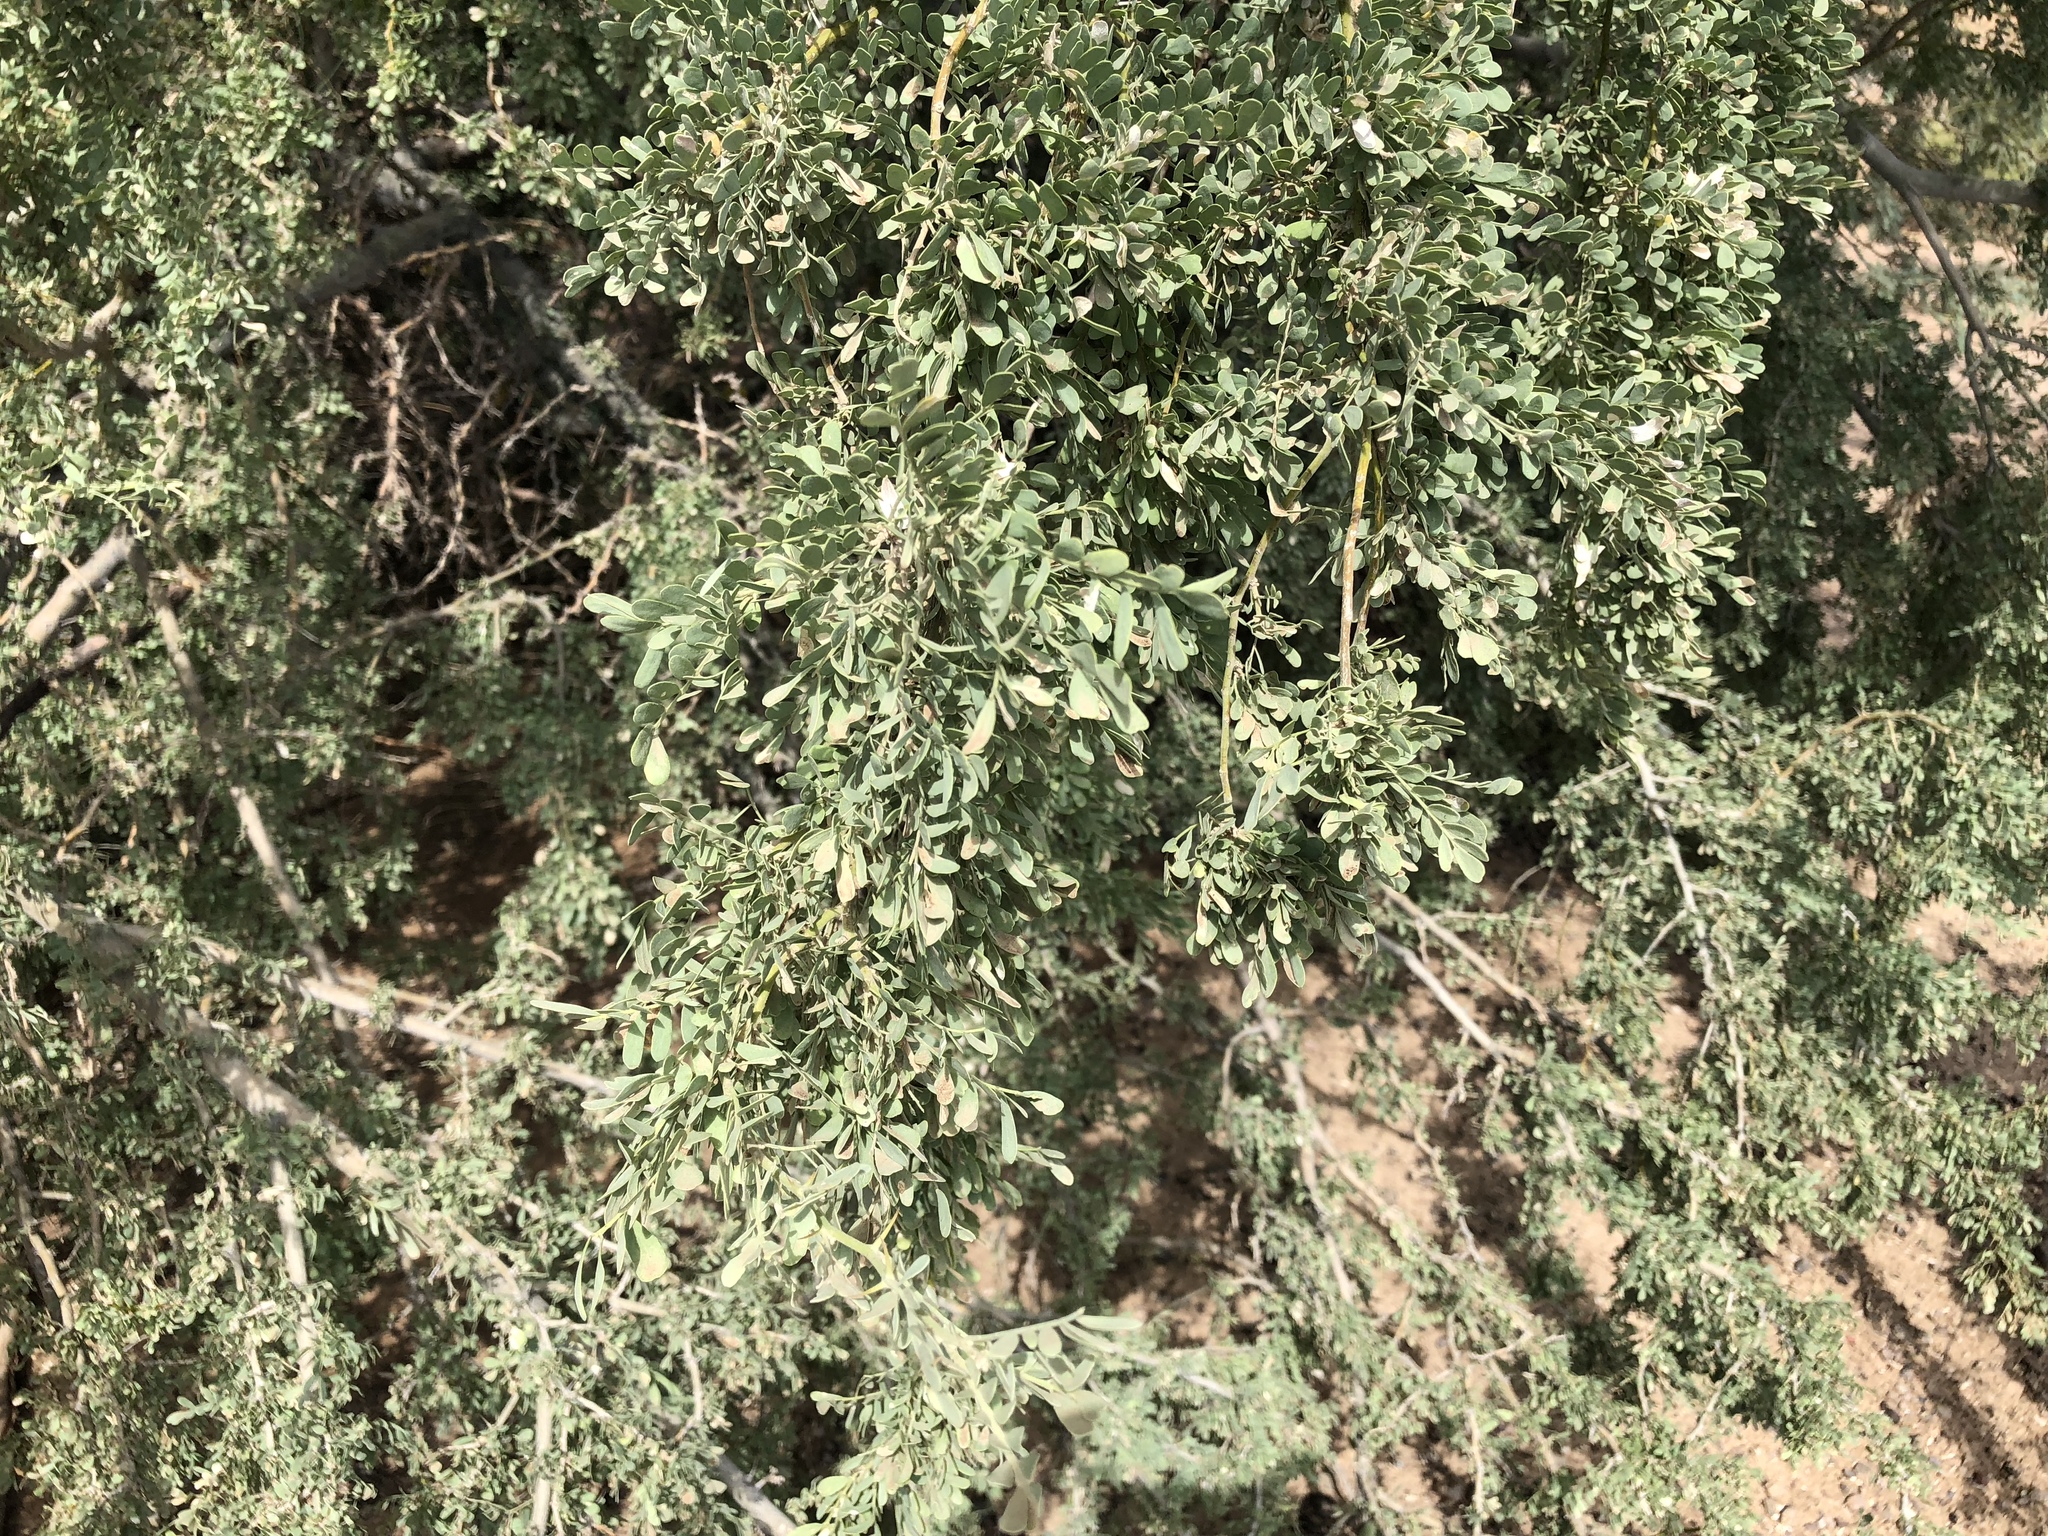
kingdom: Plantae
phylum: Tracheophyta
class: Magnoliopsida
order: Fabales
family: Fabaceae
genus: Olneya
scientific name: Olneya tesota
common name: Desert ironwood
